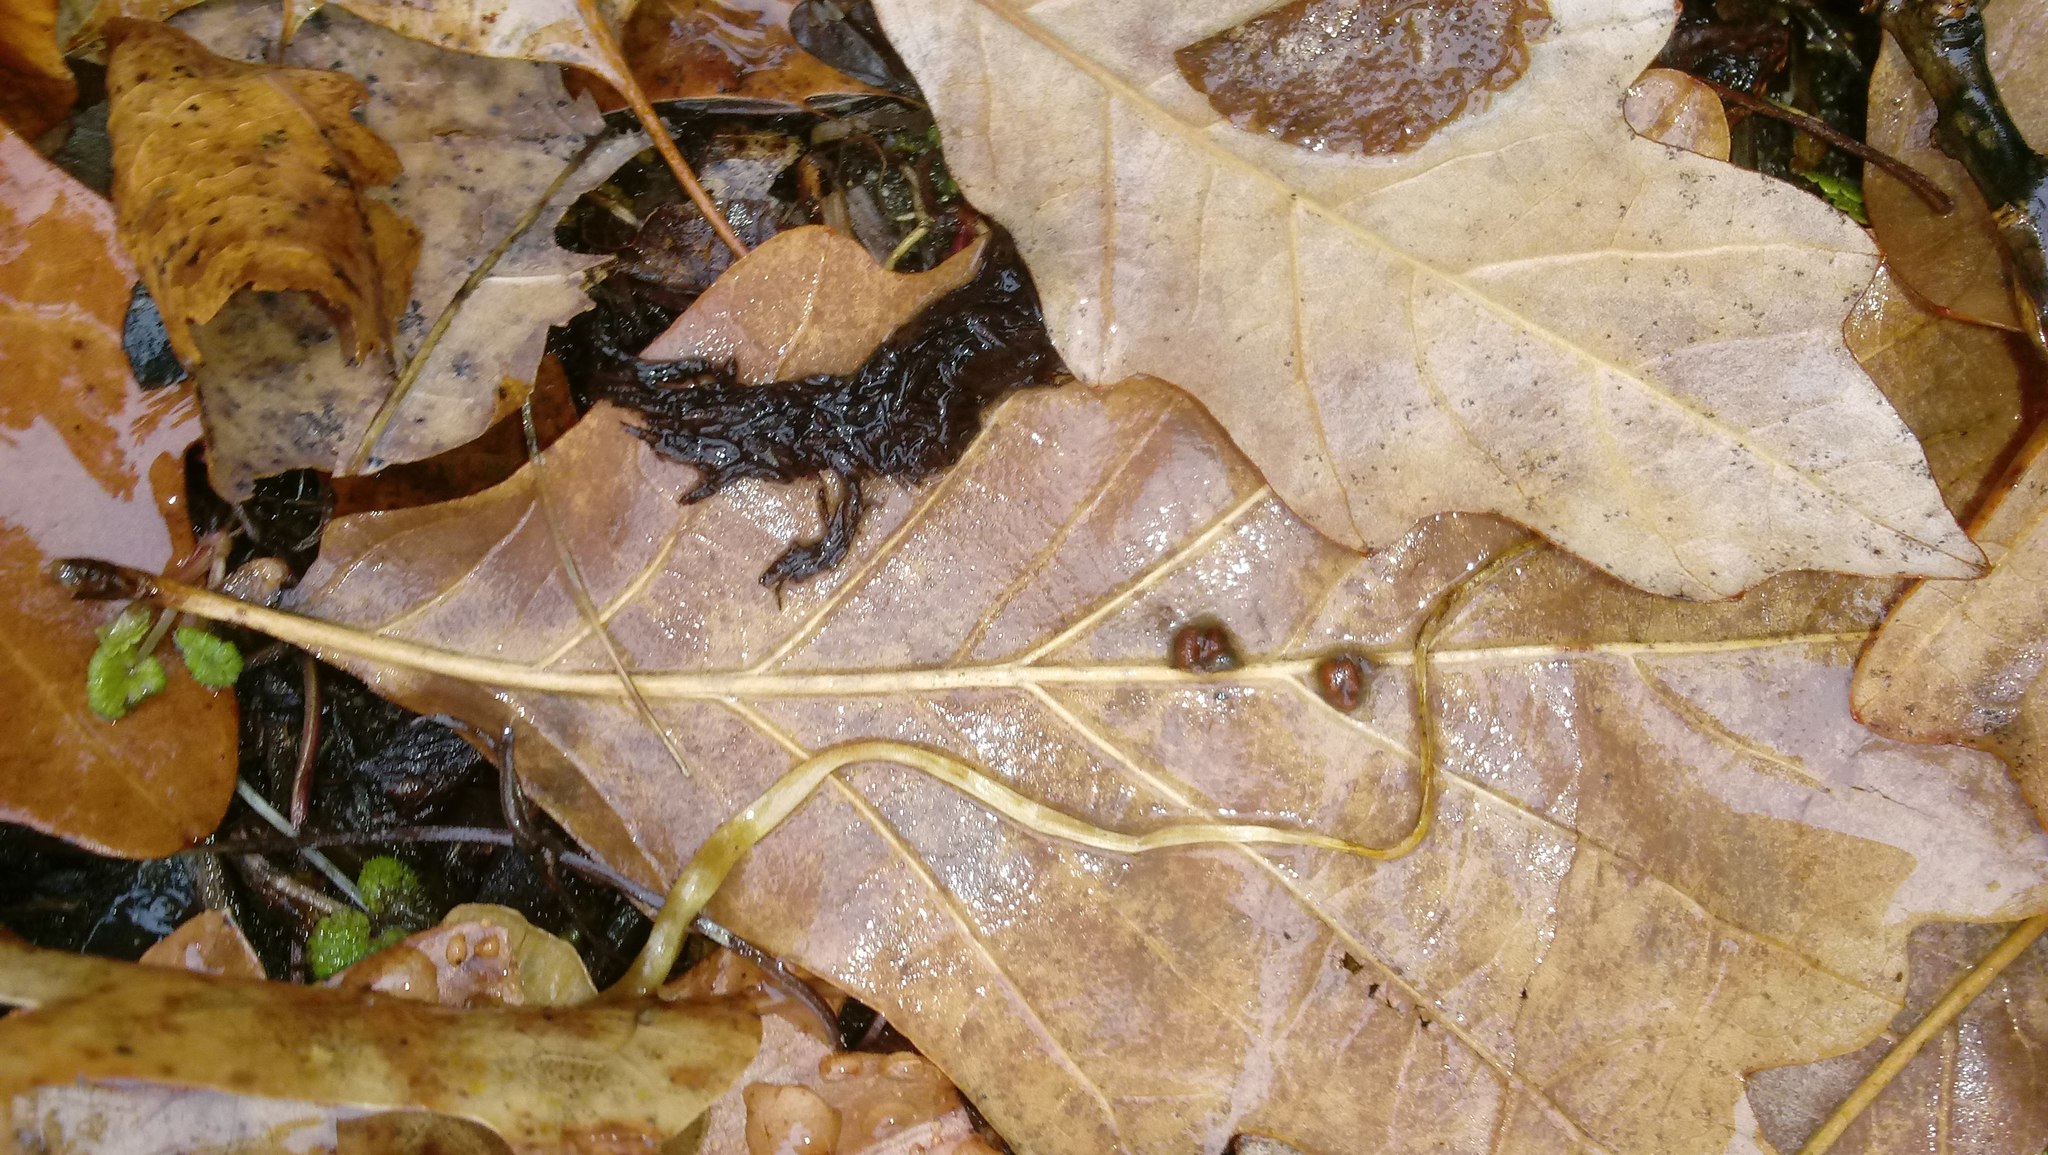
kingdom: Animalia
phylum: Arthropoda
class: Insecta
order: Hymenoptera
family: Cynipidae
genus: Andricus
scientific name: Andricus Druon ignotum
